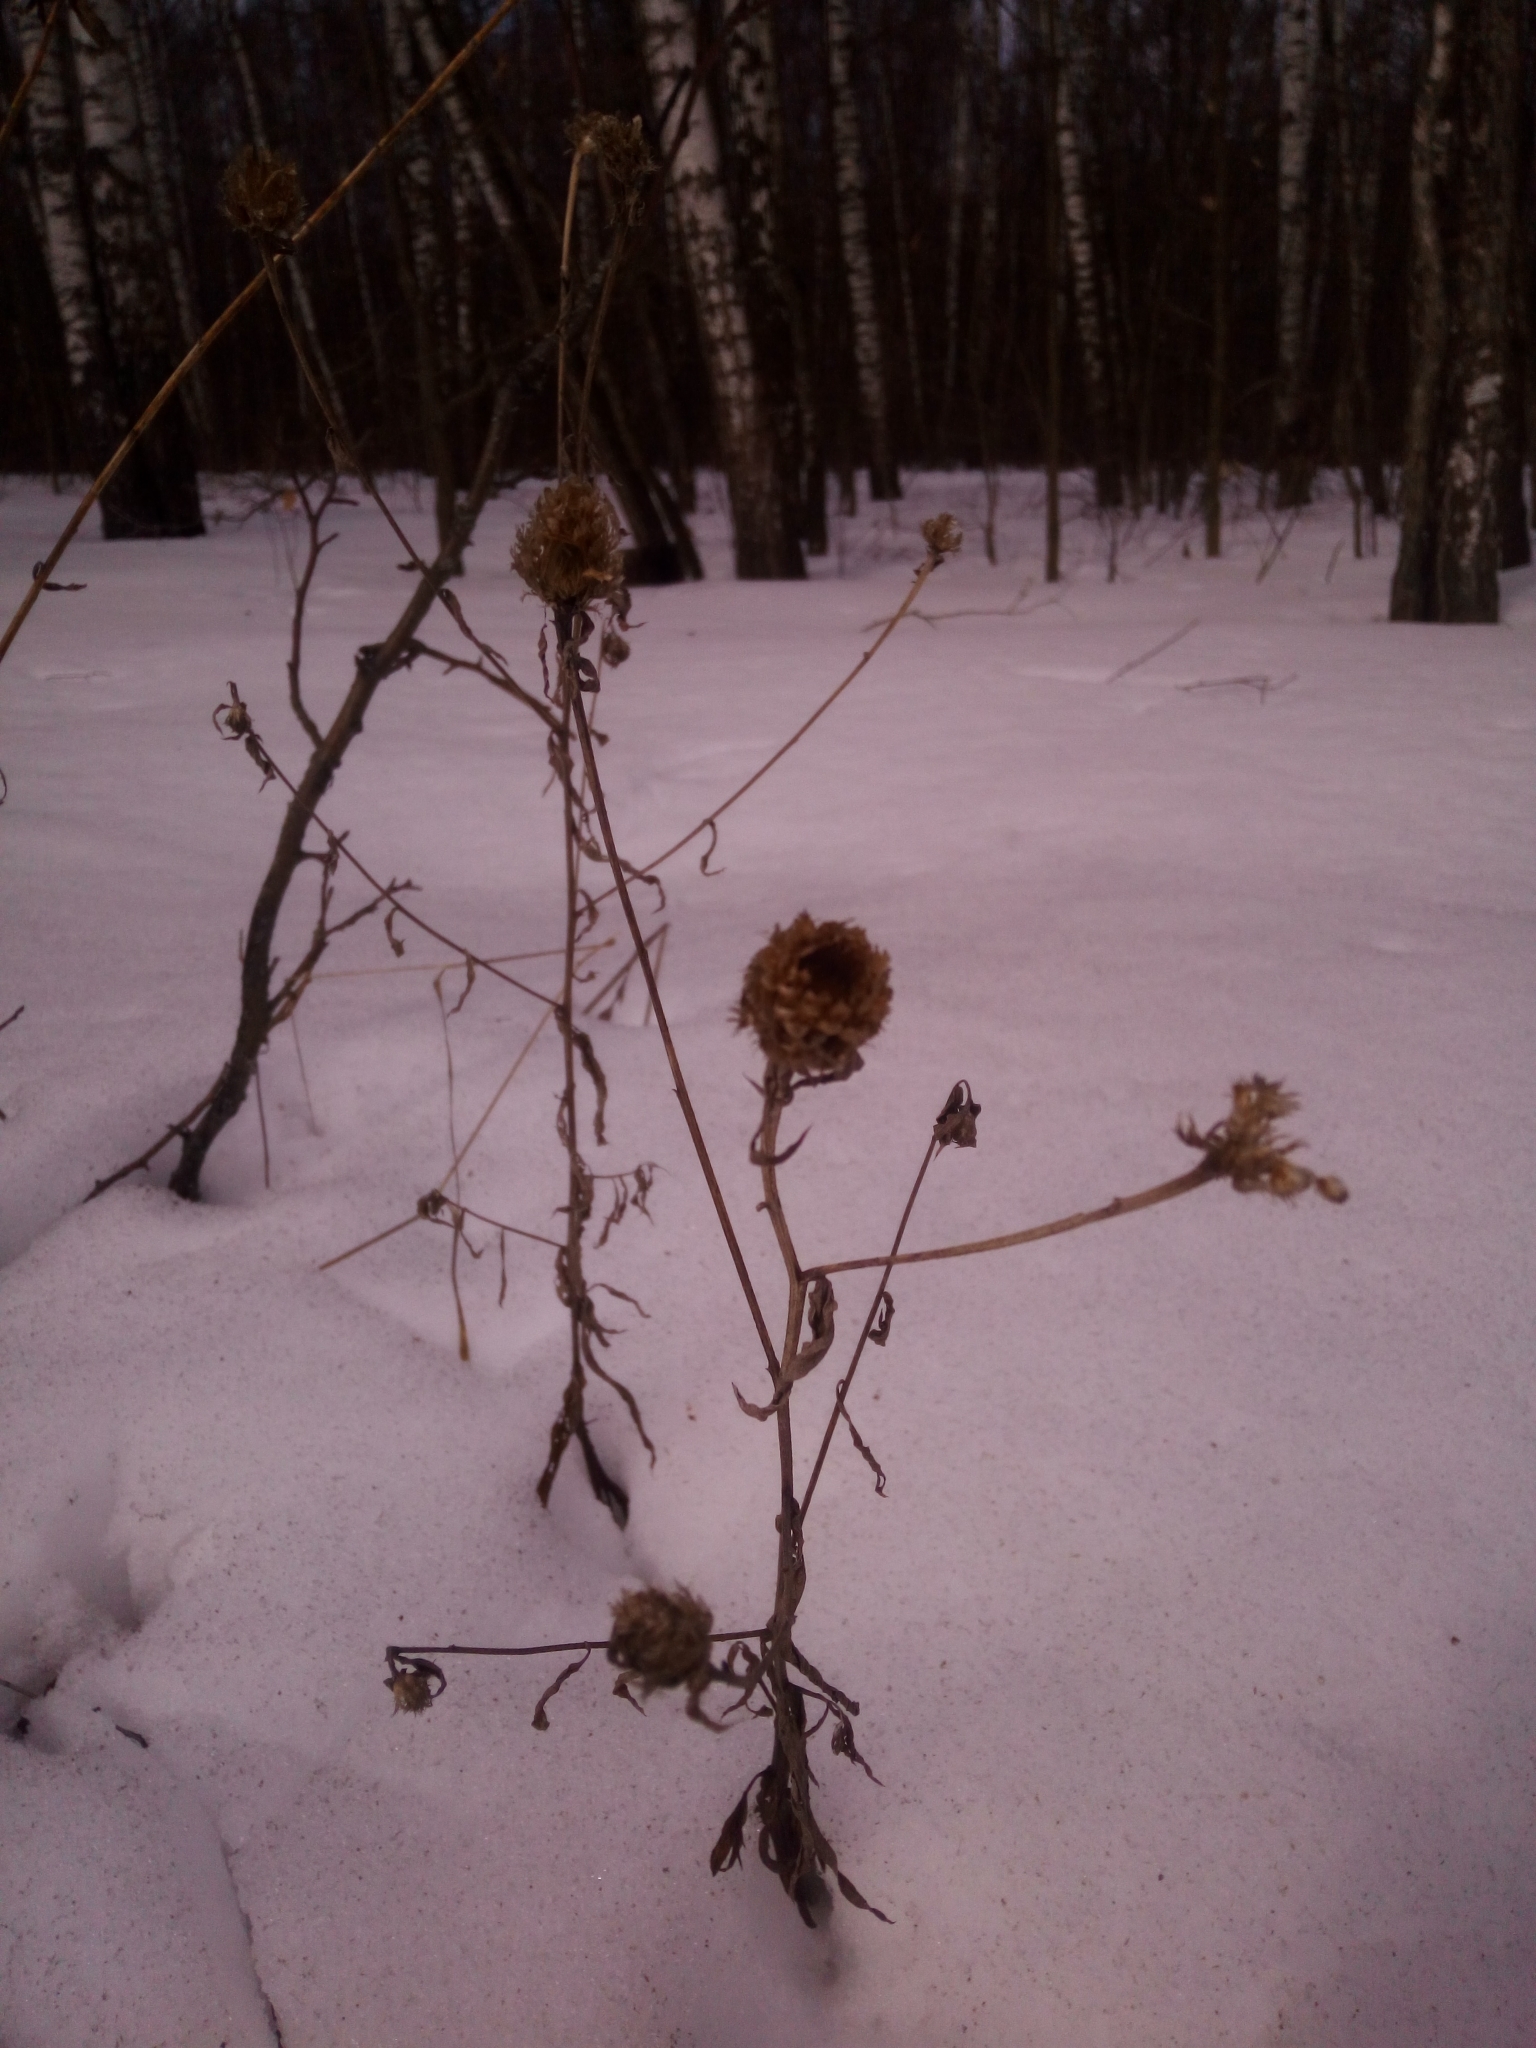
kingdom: Plantae
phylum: Tracheophyta
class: Magnoliopsida
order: Asterales
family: Asteraceae
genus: Centaurea
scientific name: Centaurea jacea
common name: Brown knapweed
